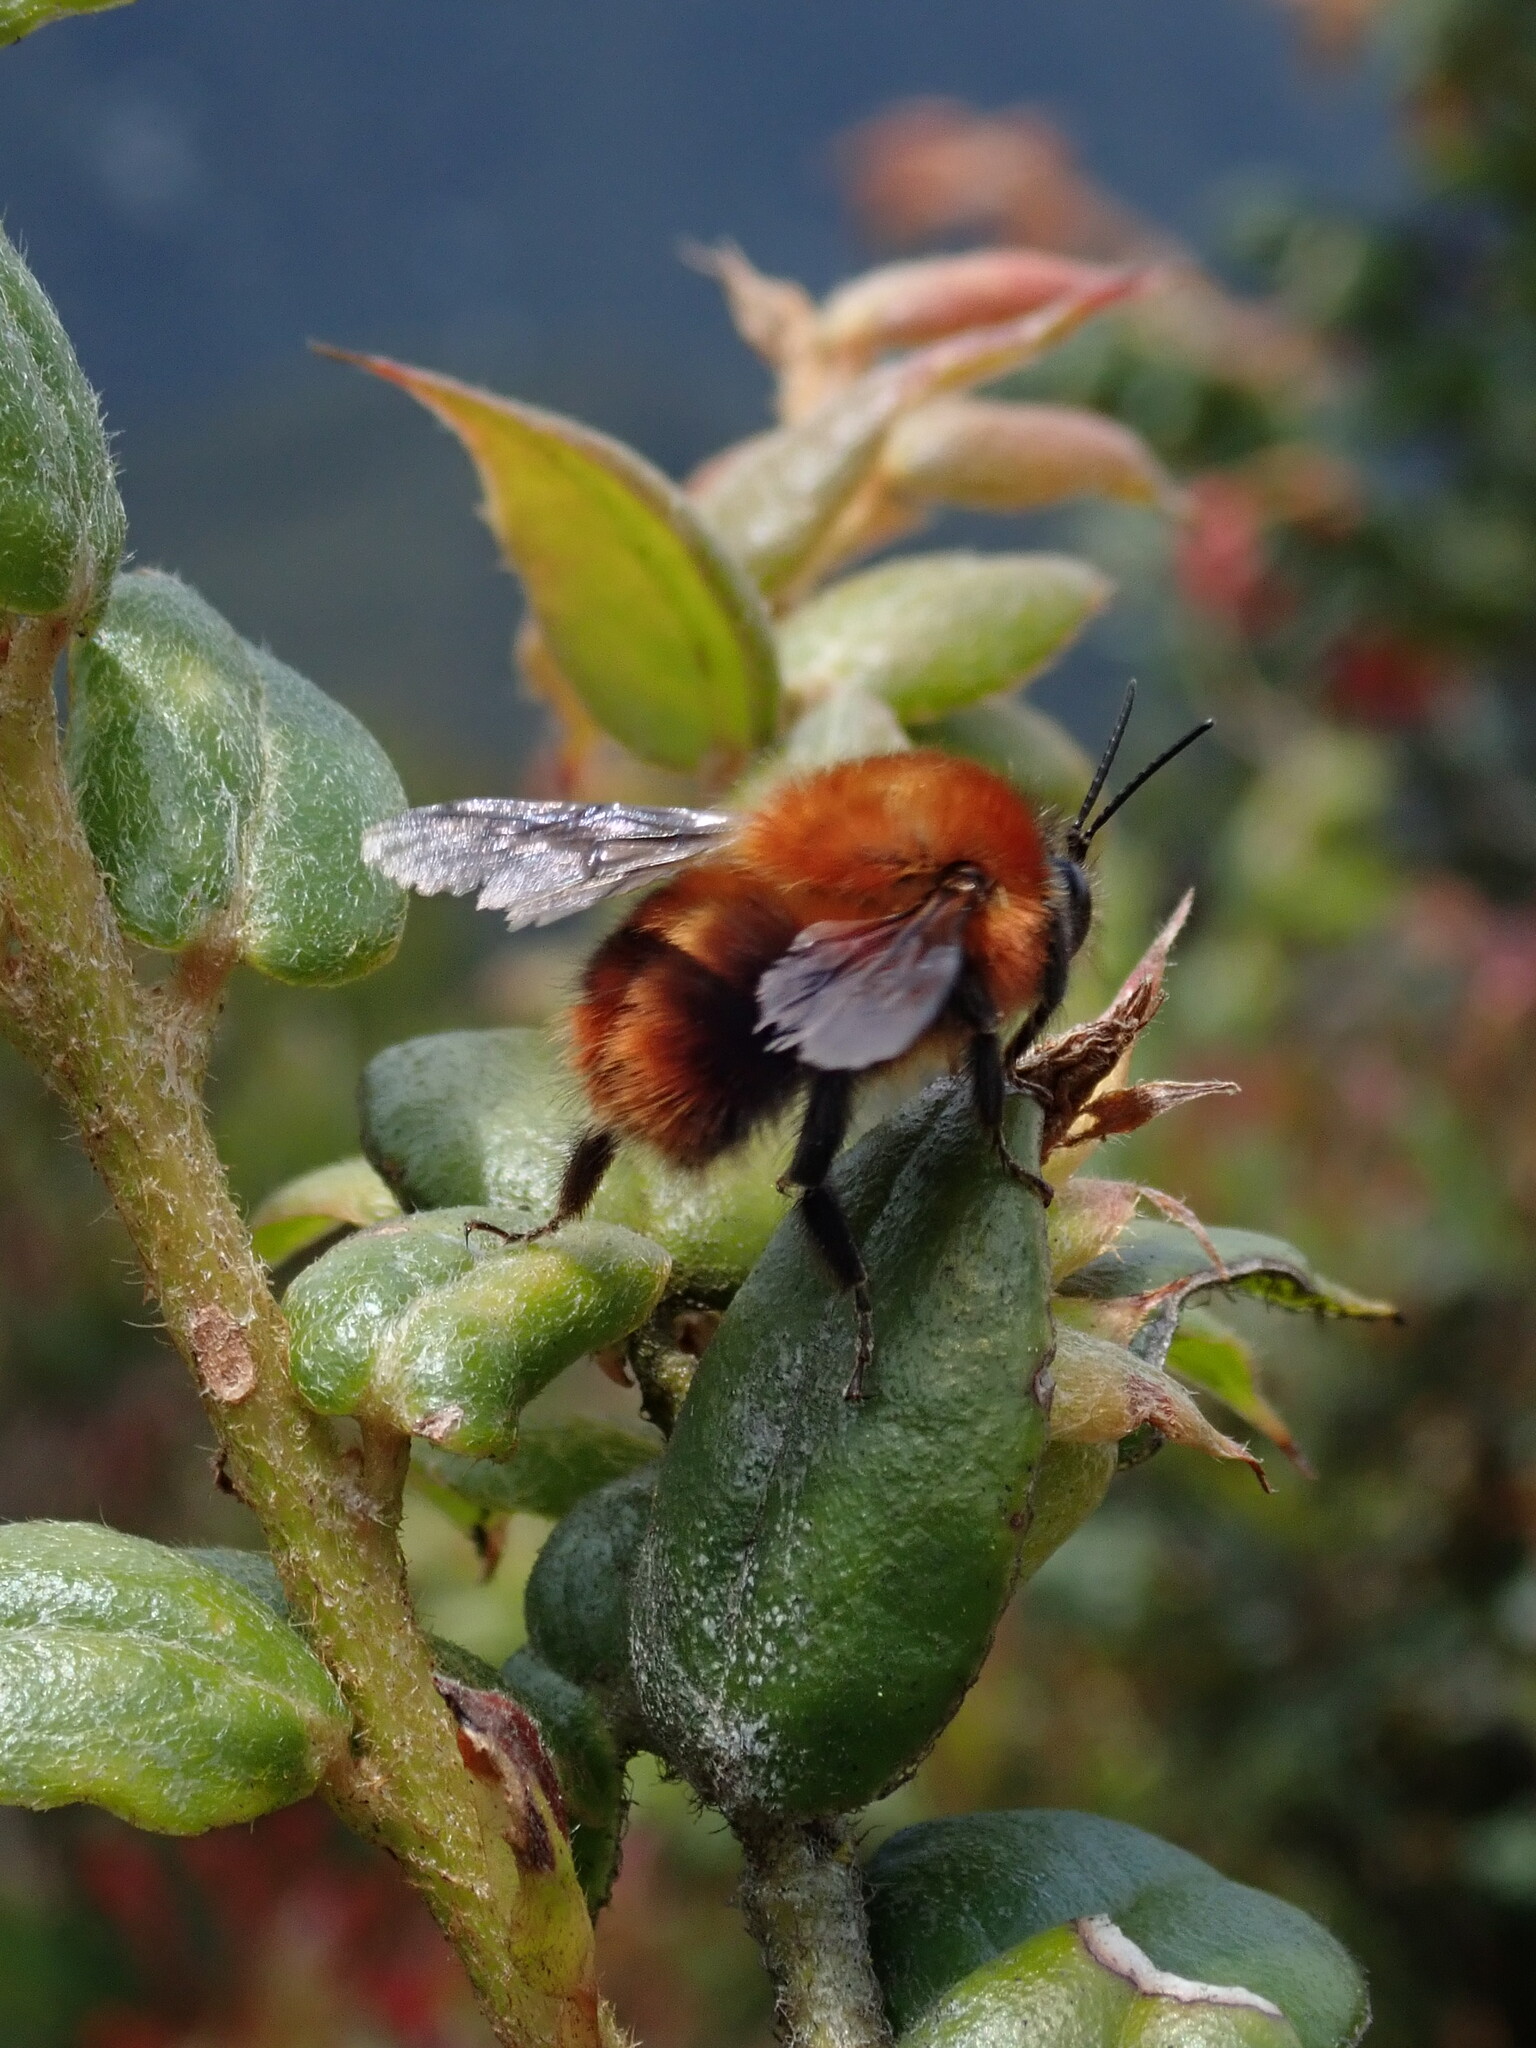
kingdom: Animalia
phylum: Arthropoda
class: Insecta
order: Hymenoptera
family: Apidae
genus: Bombus
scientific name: Bombus rubicundus
